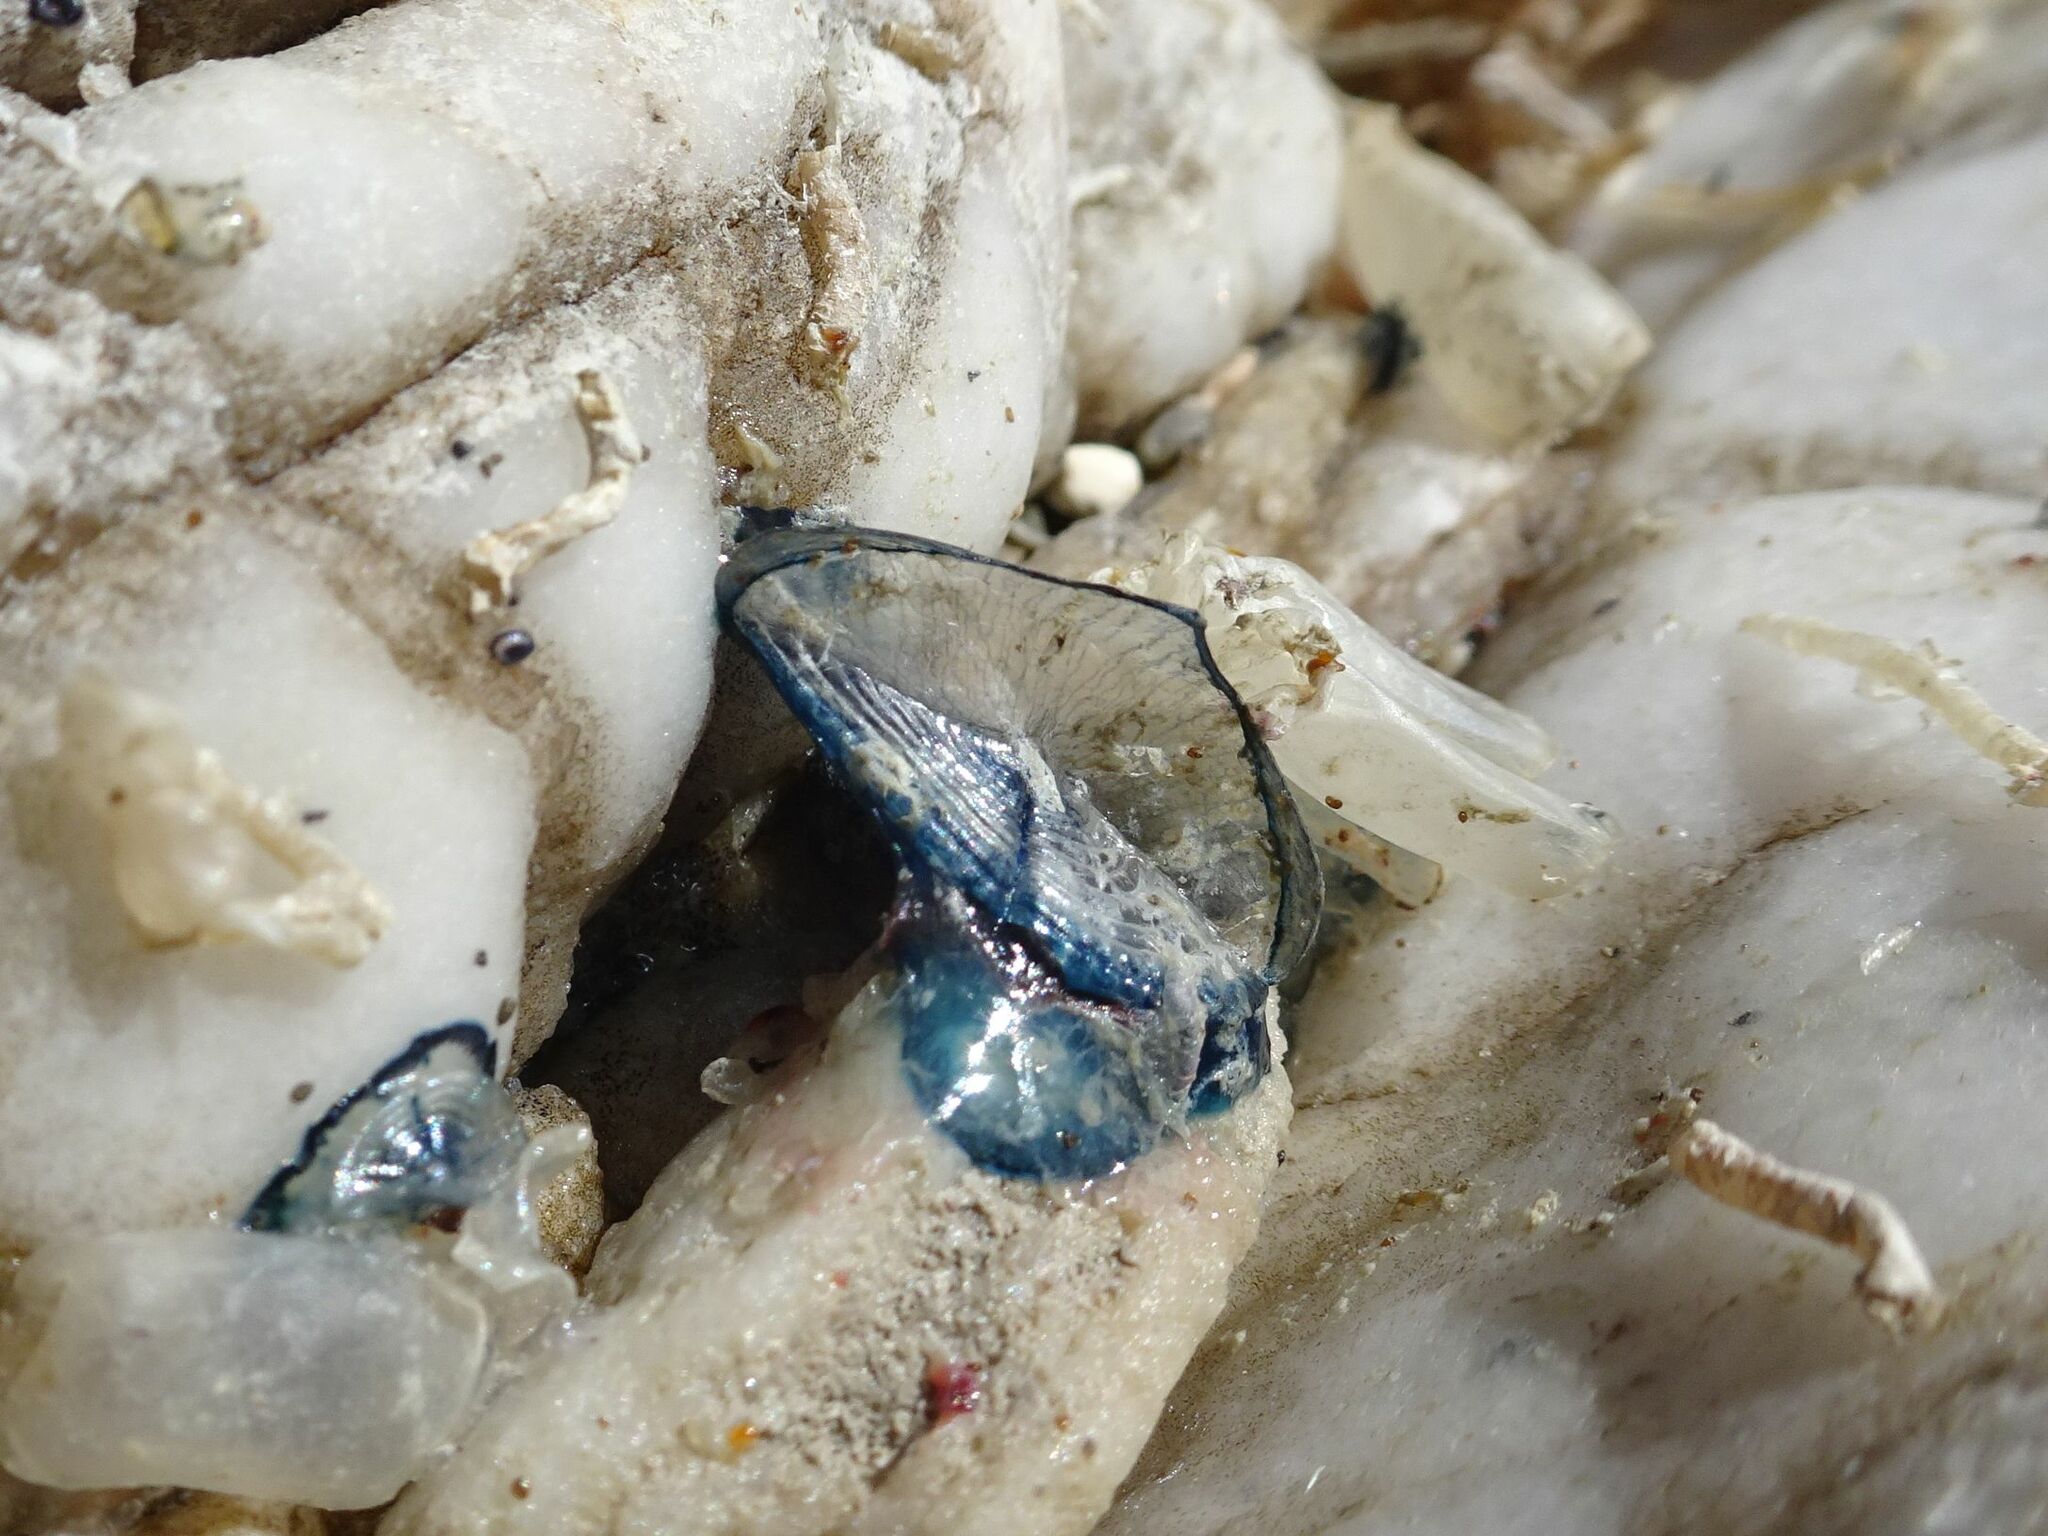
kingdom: Animalia
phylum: Cnidaria
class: Hydrozoa
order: Anthoathecata
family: Porpitidae
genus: Velella
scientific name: Velella velella
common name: By-the-wind-sailor
